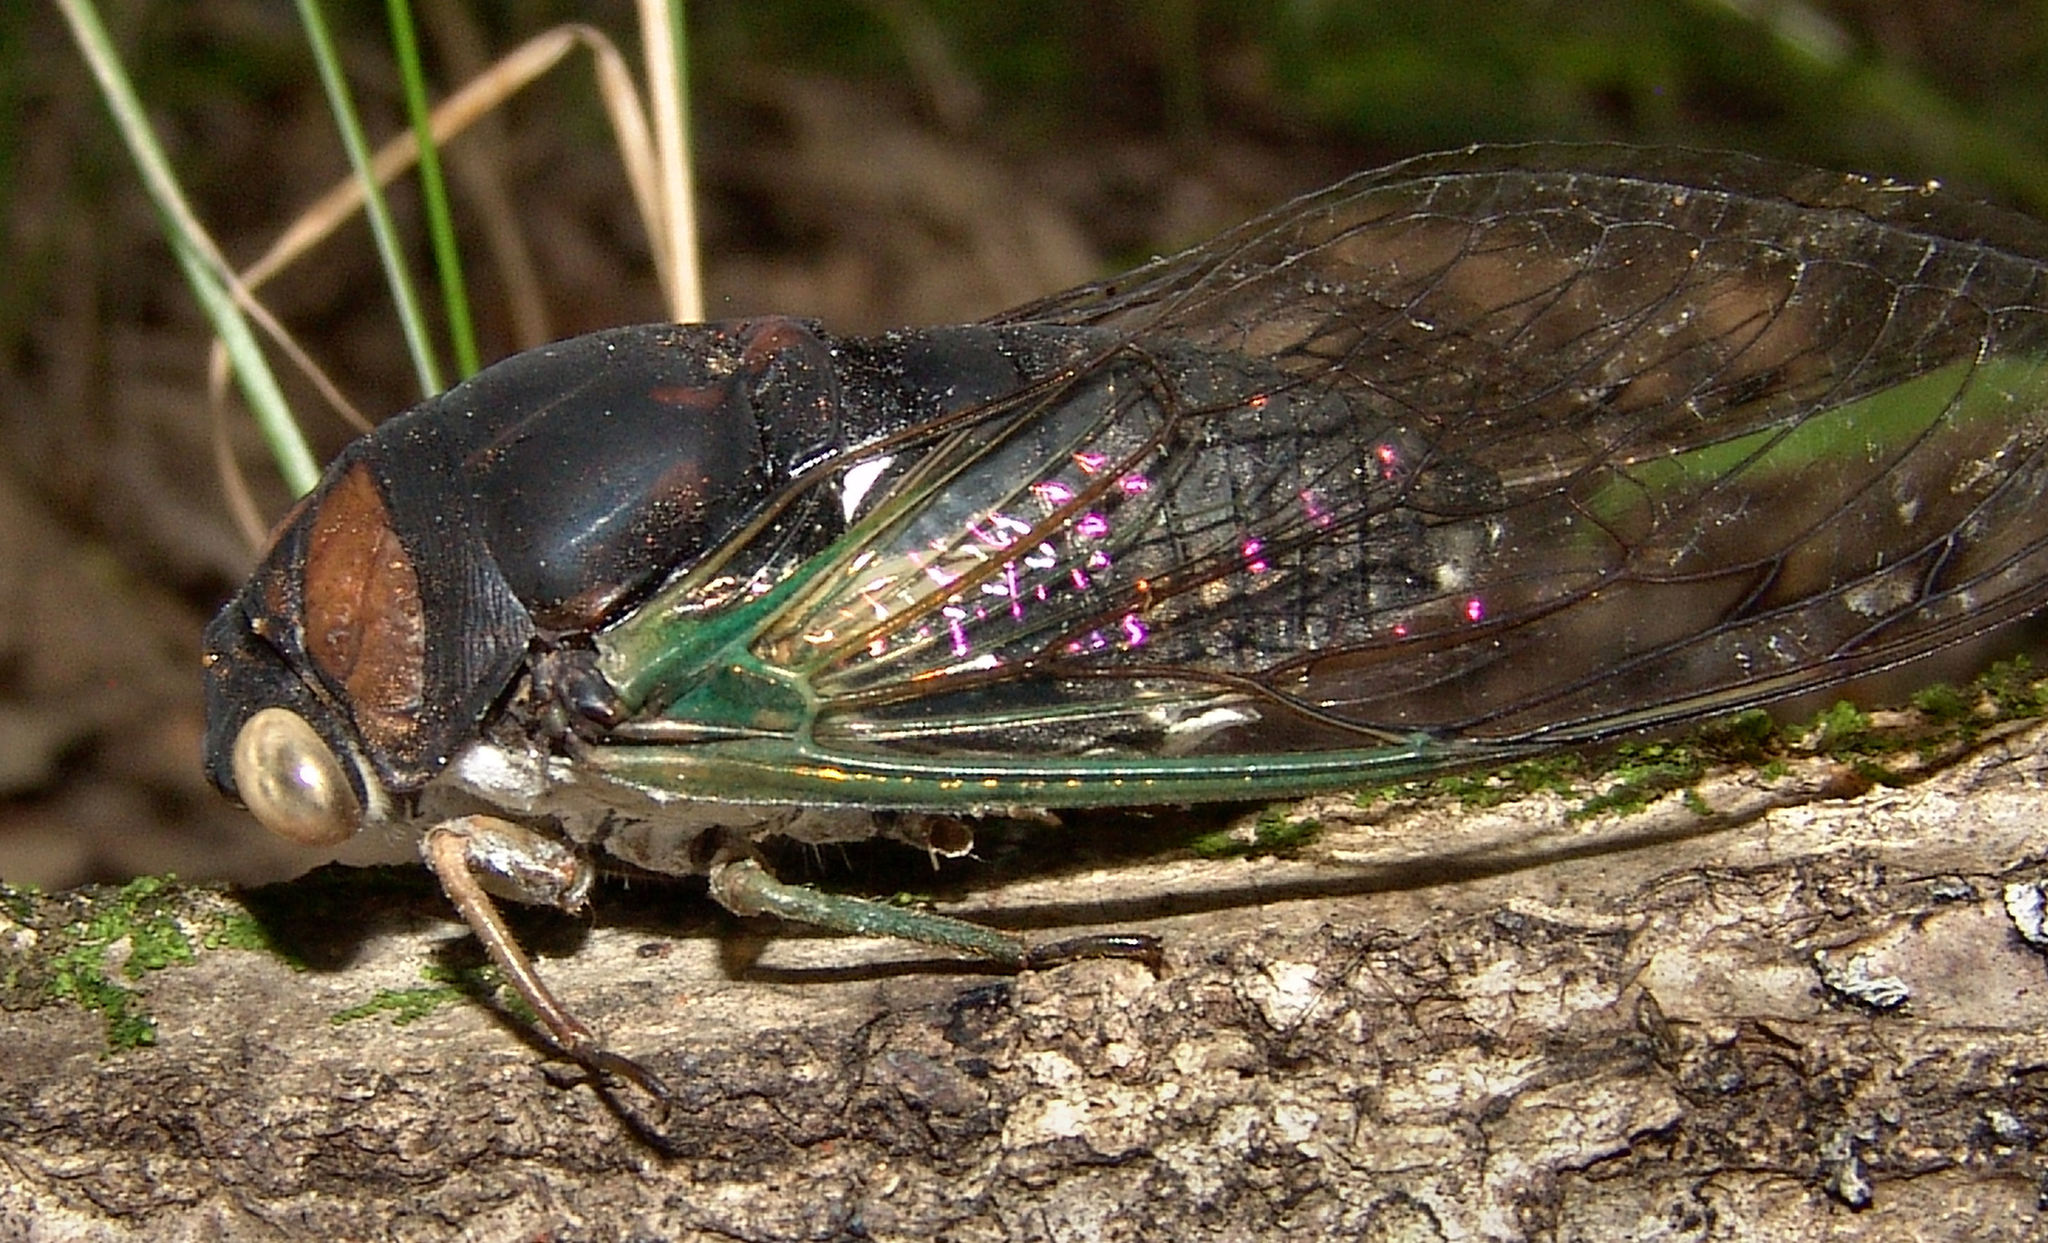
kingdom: Animalia
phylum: Arthropoda
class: Insecta
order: Hemiptera
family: Cicadidae
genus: Neotibicen
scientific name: Neotibicen tibicen
